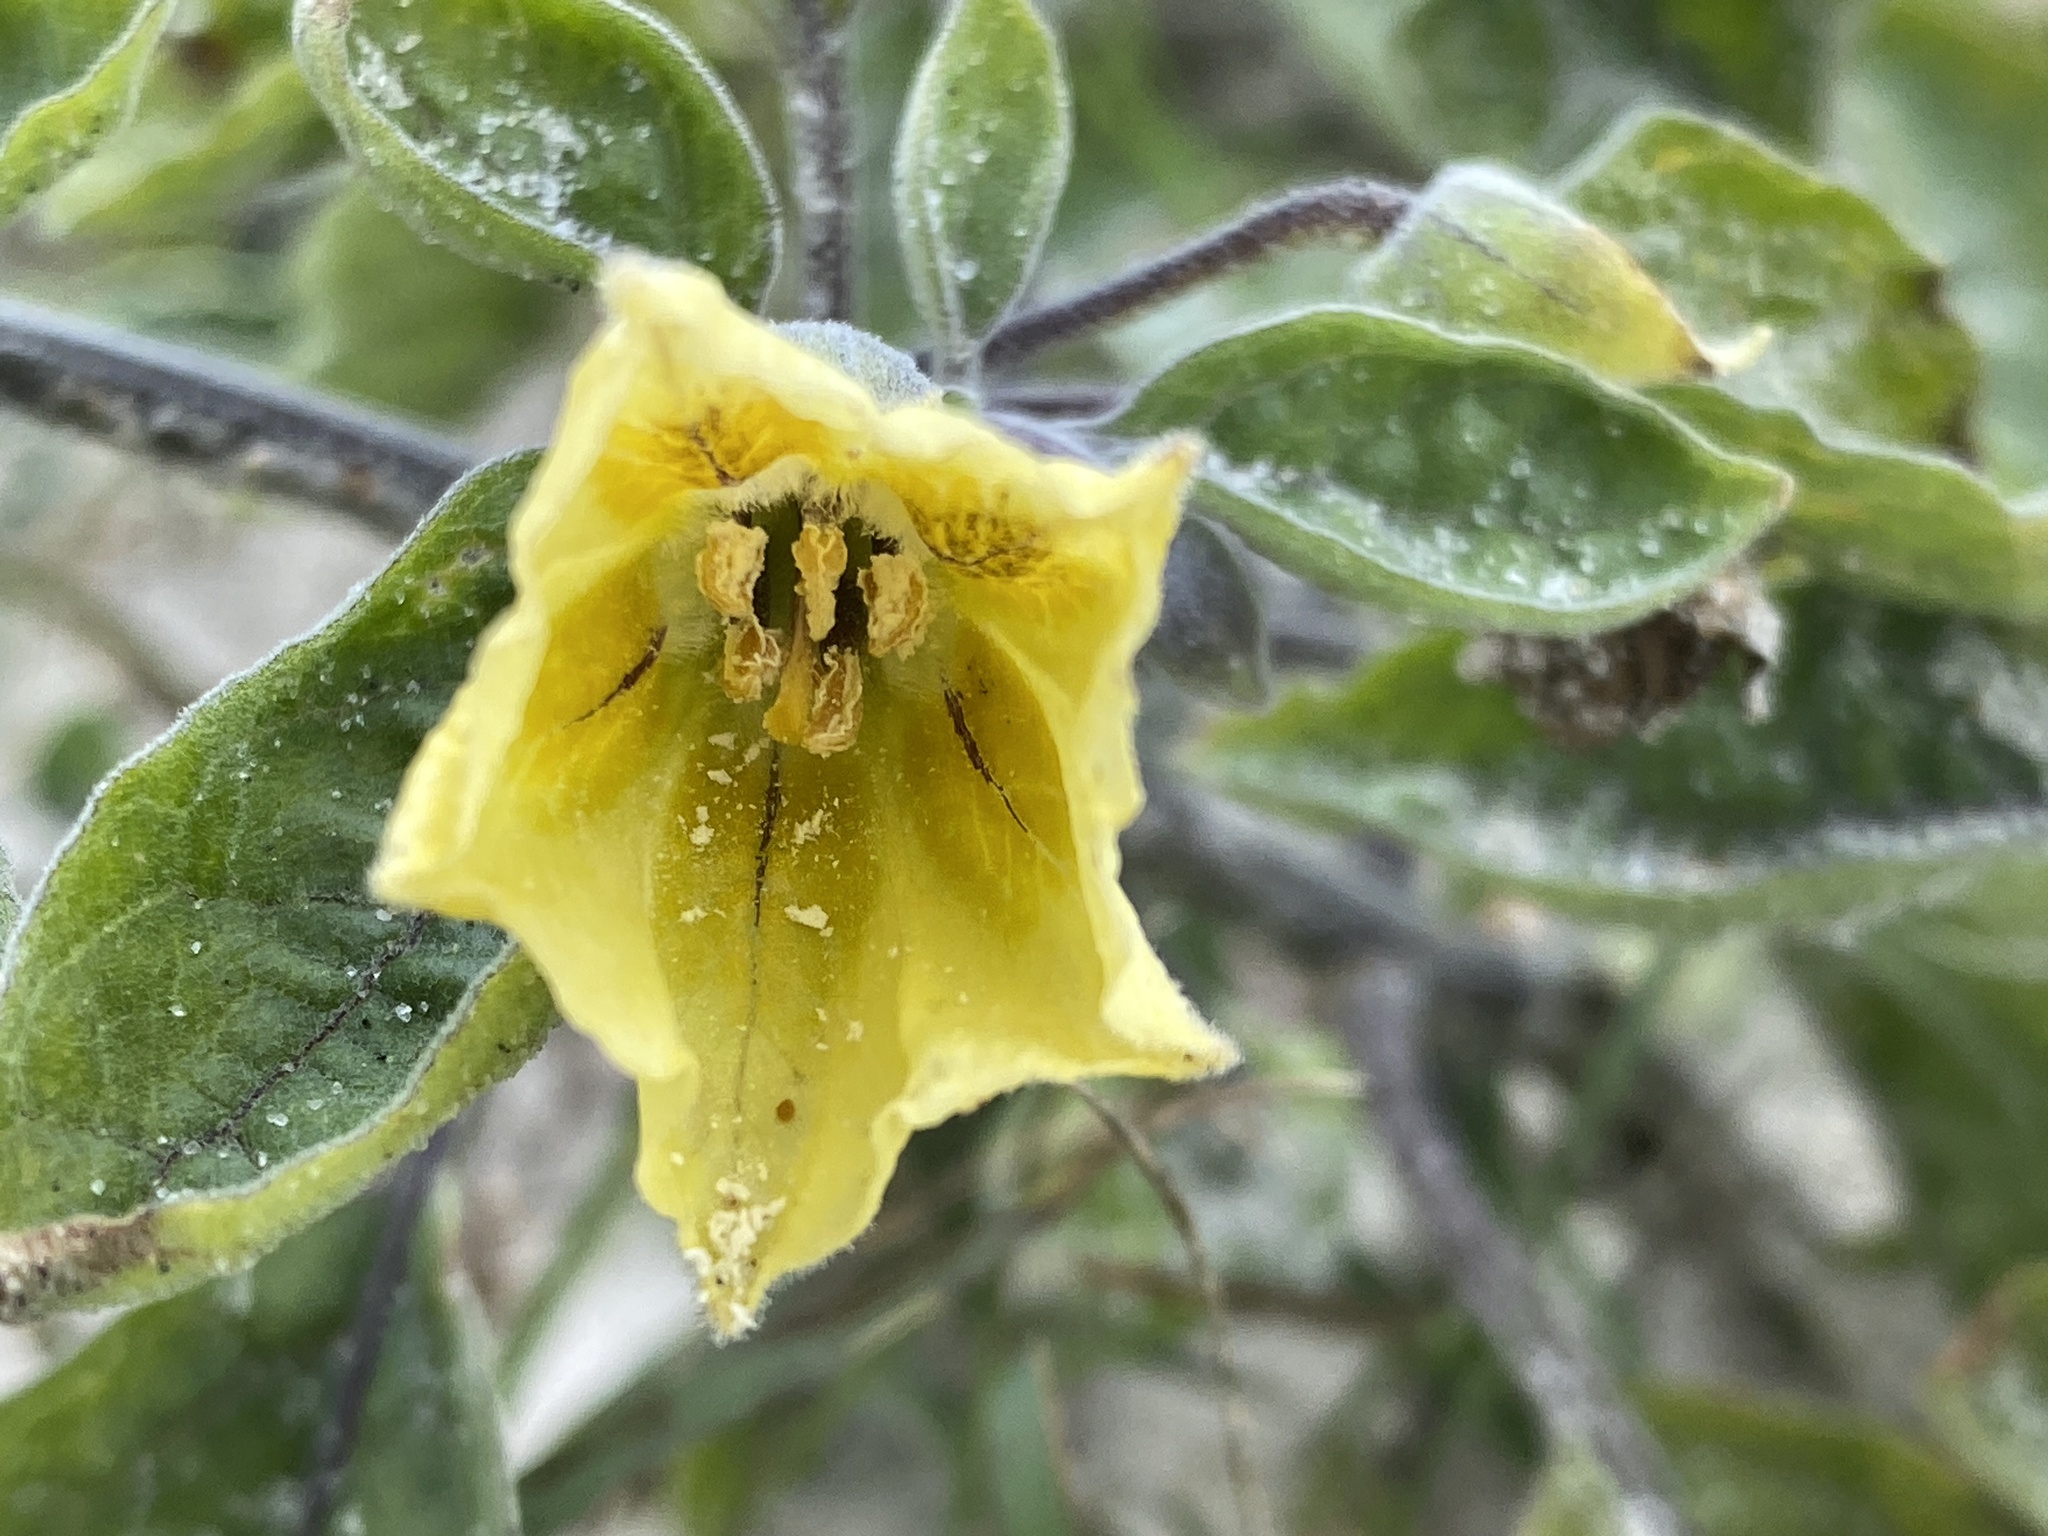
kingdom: Plantae
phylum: Tracheophyta
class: Magnoliopsida
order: Solanales
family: Solanaceae
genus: Physalis
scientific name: Physalis walteri
